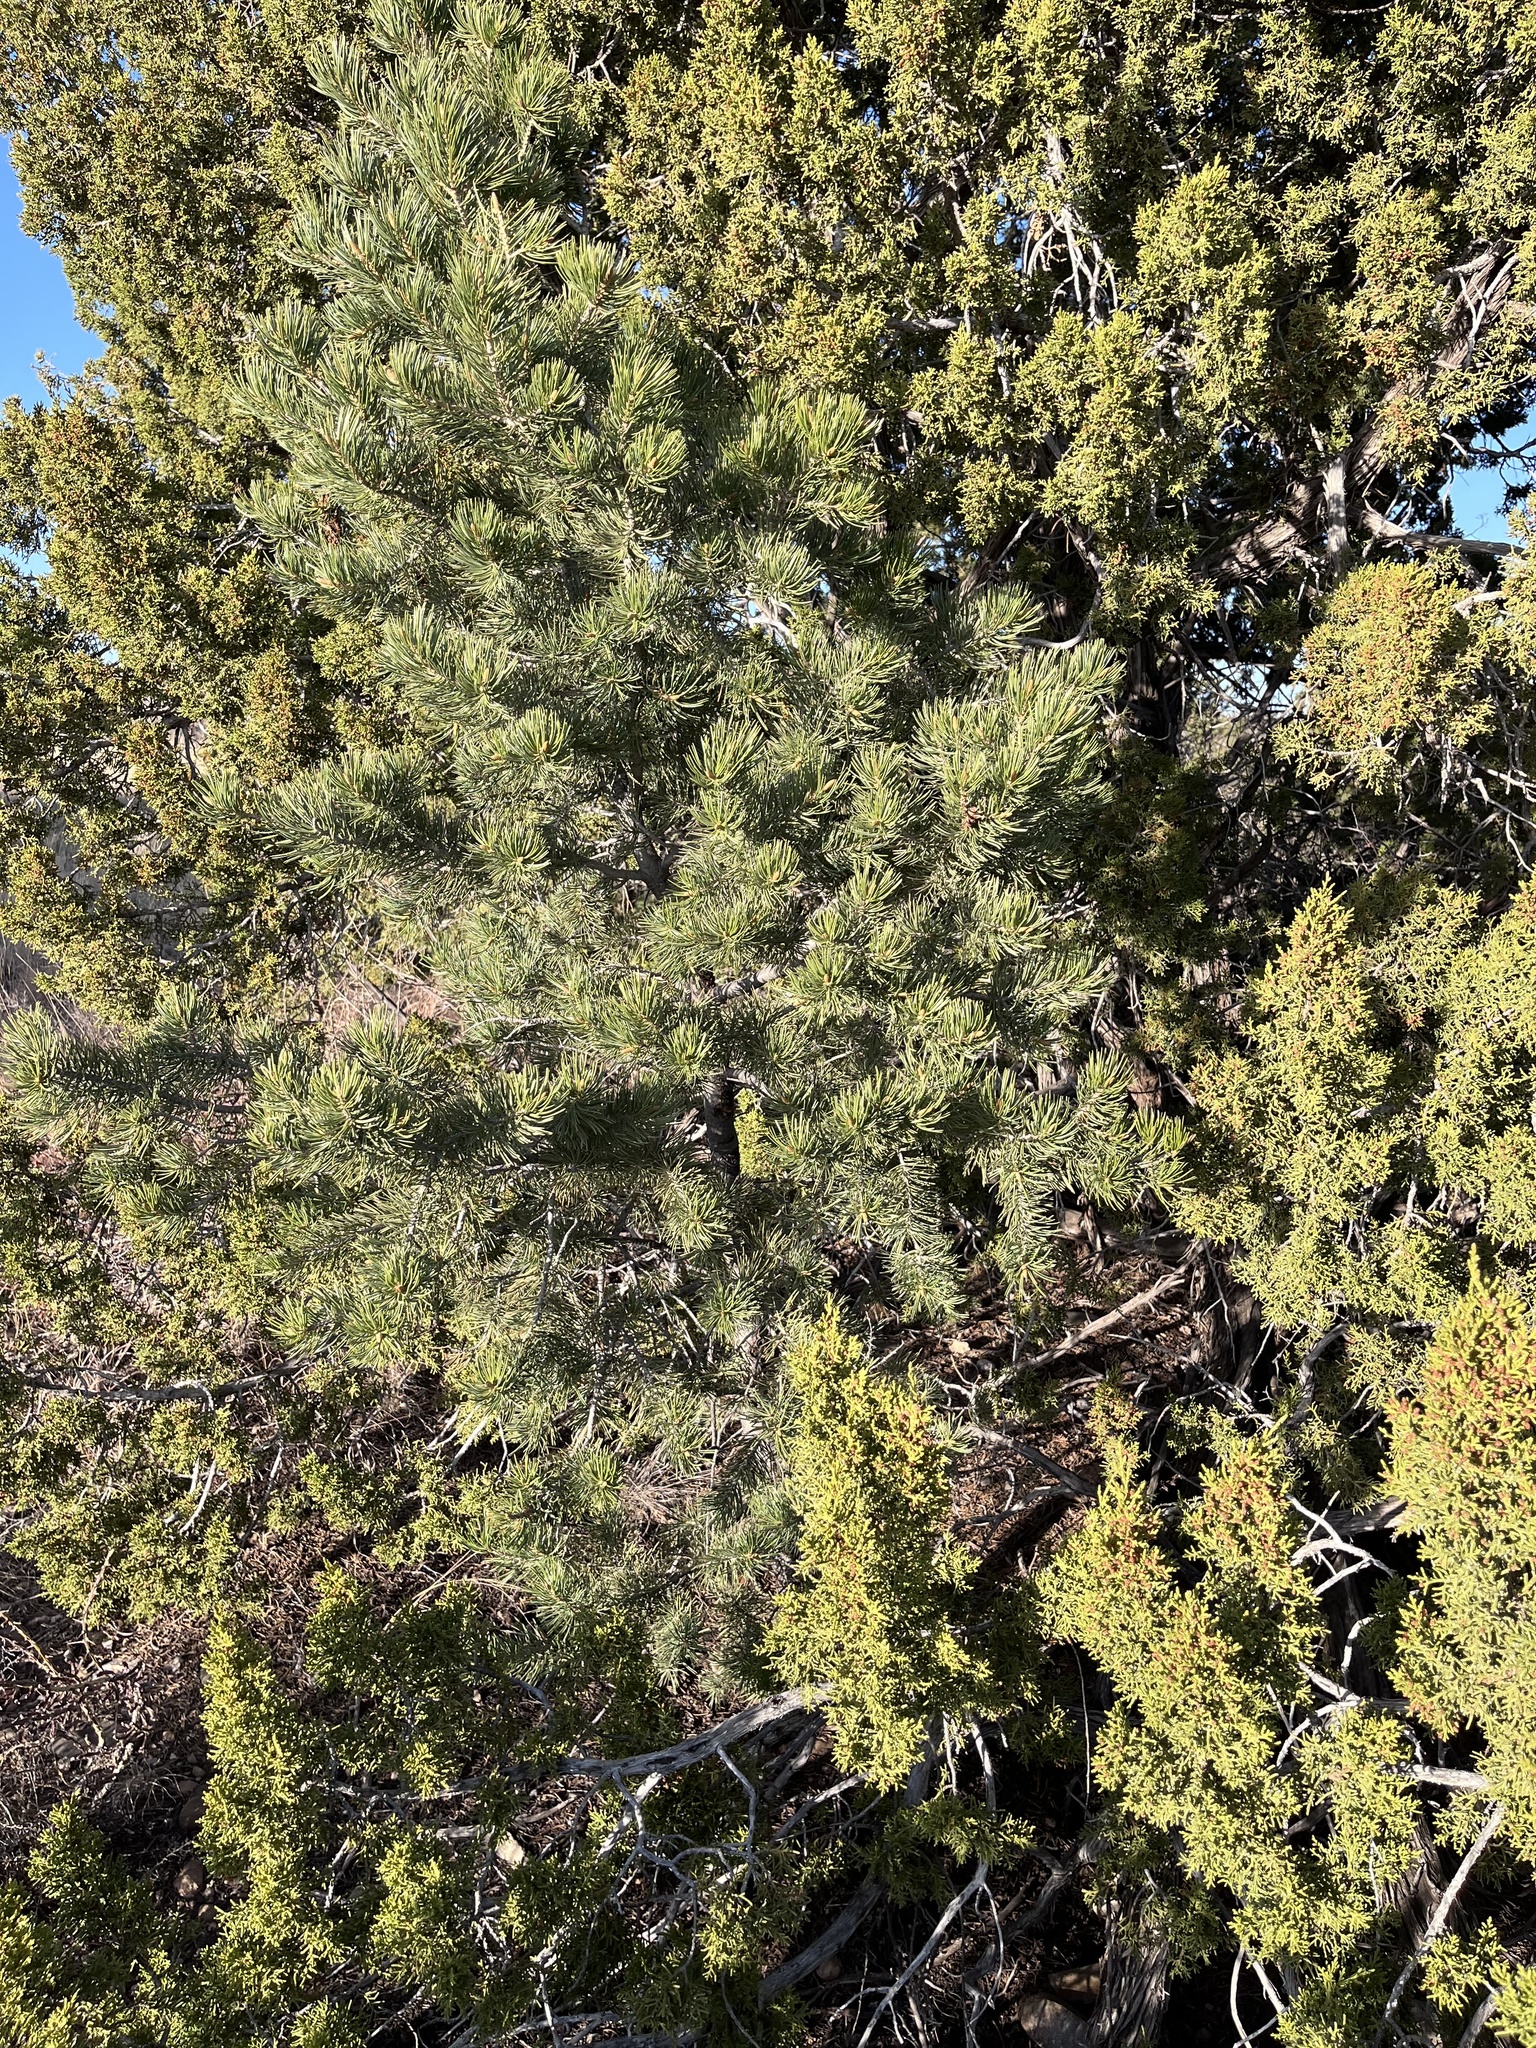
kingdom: Plantae
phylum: Tracheophyta
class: Pinopsida
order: Pinales
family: Pinaceae
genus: Pinus
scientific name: Pinus edulis
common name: Colorado pinyon
